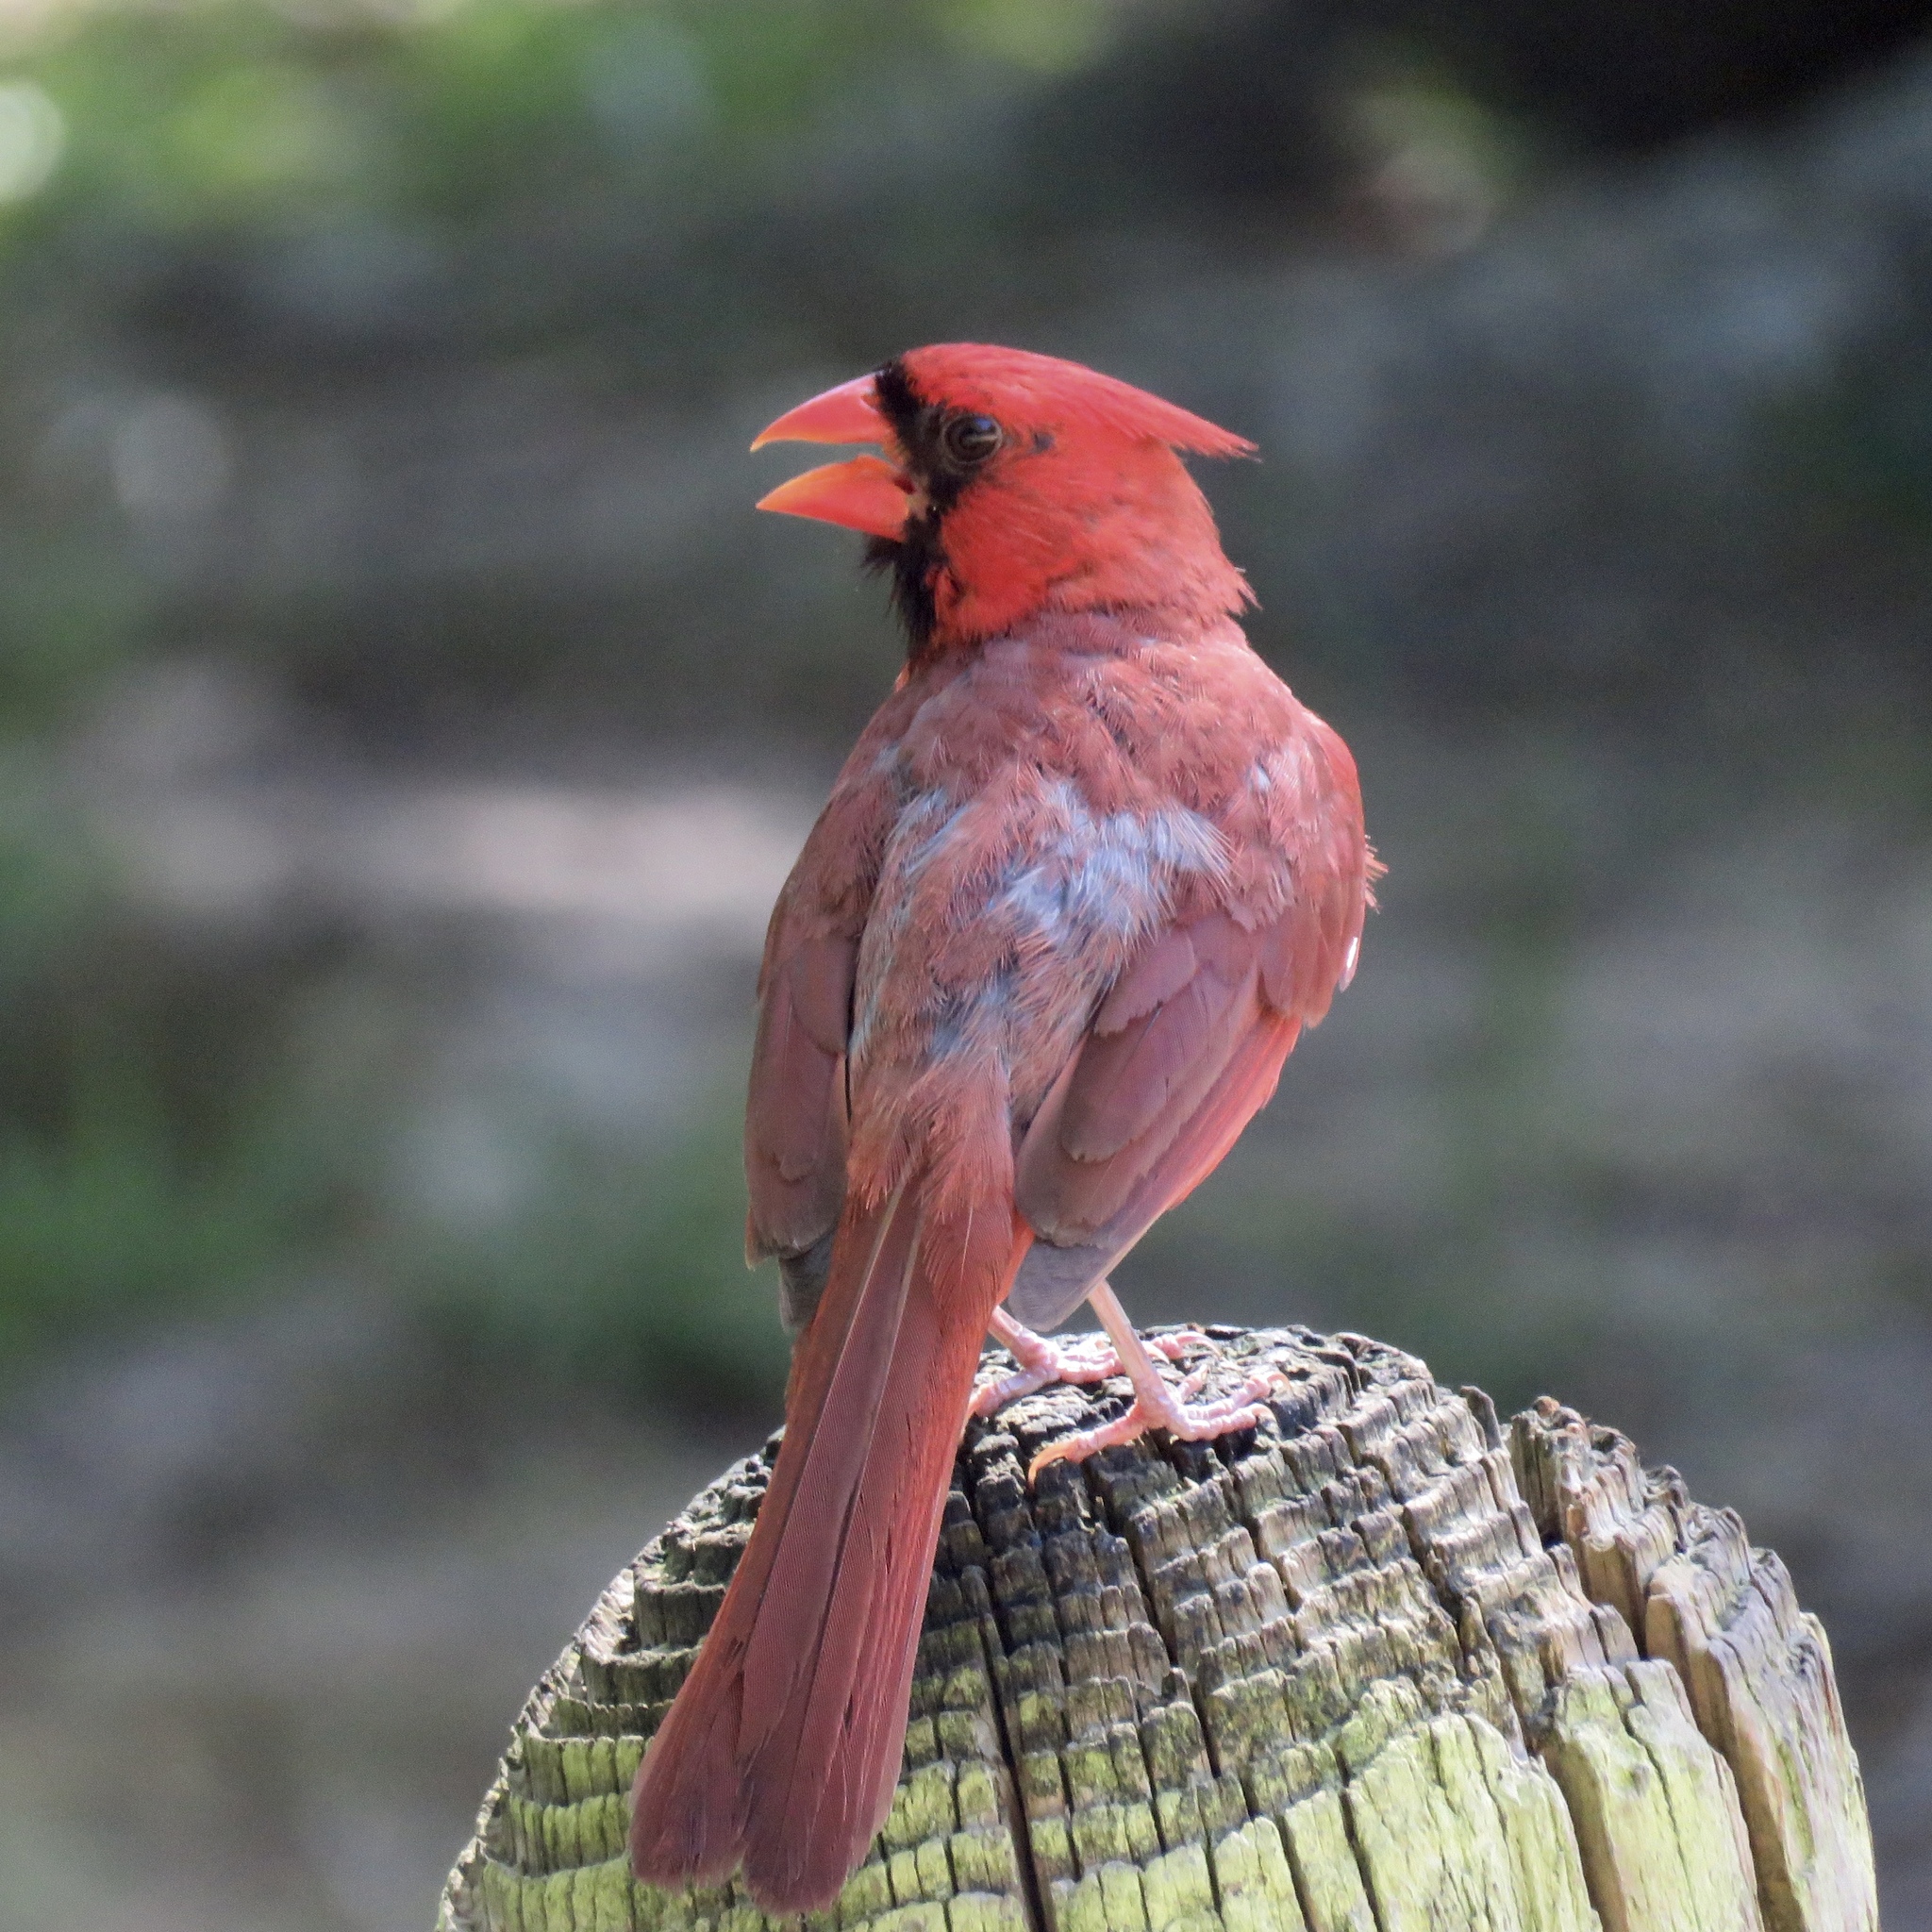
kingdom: Animalia
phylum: Chordata
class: Aves
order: Passeriformes
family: Cardinalidae
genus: Cardinalis
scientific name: Cardinalis cardinalis
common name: Northern cardinal
